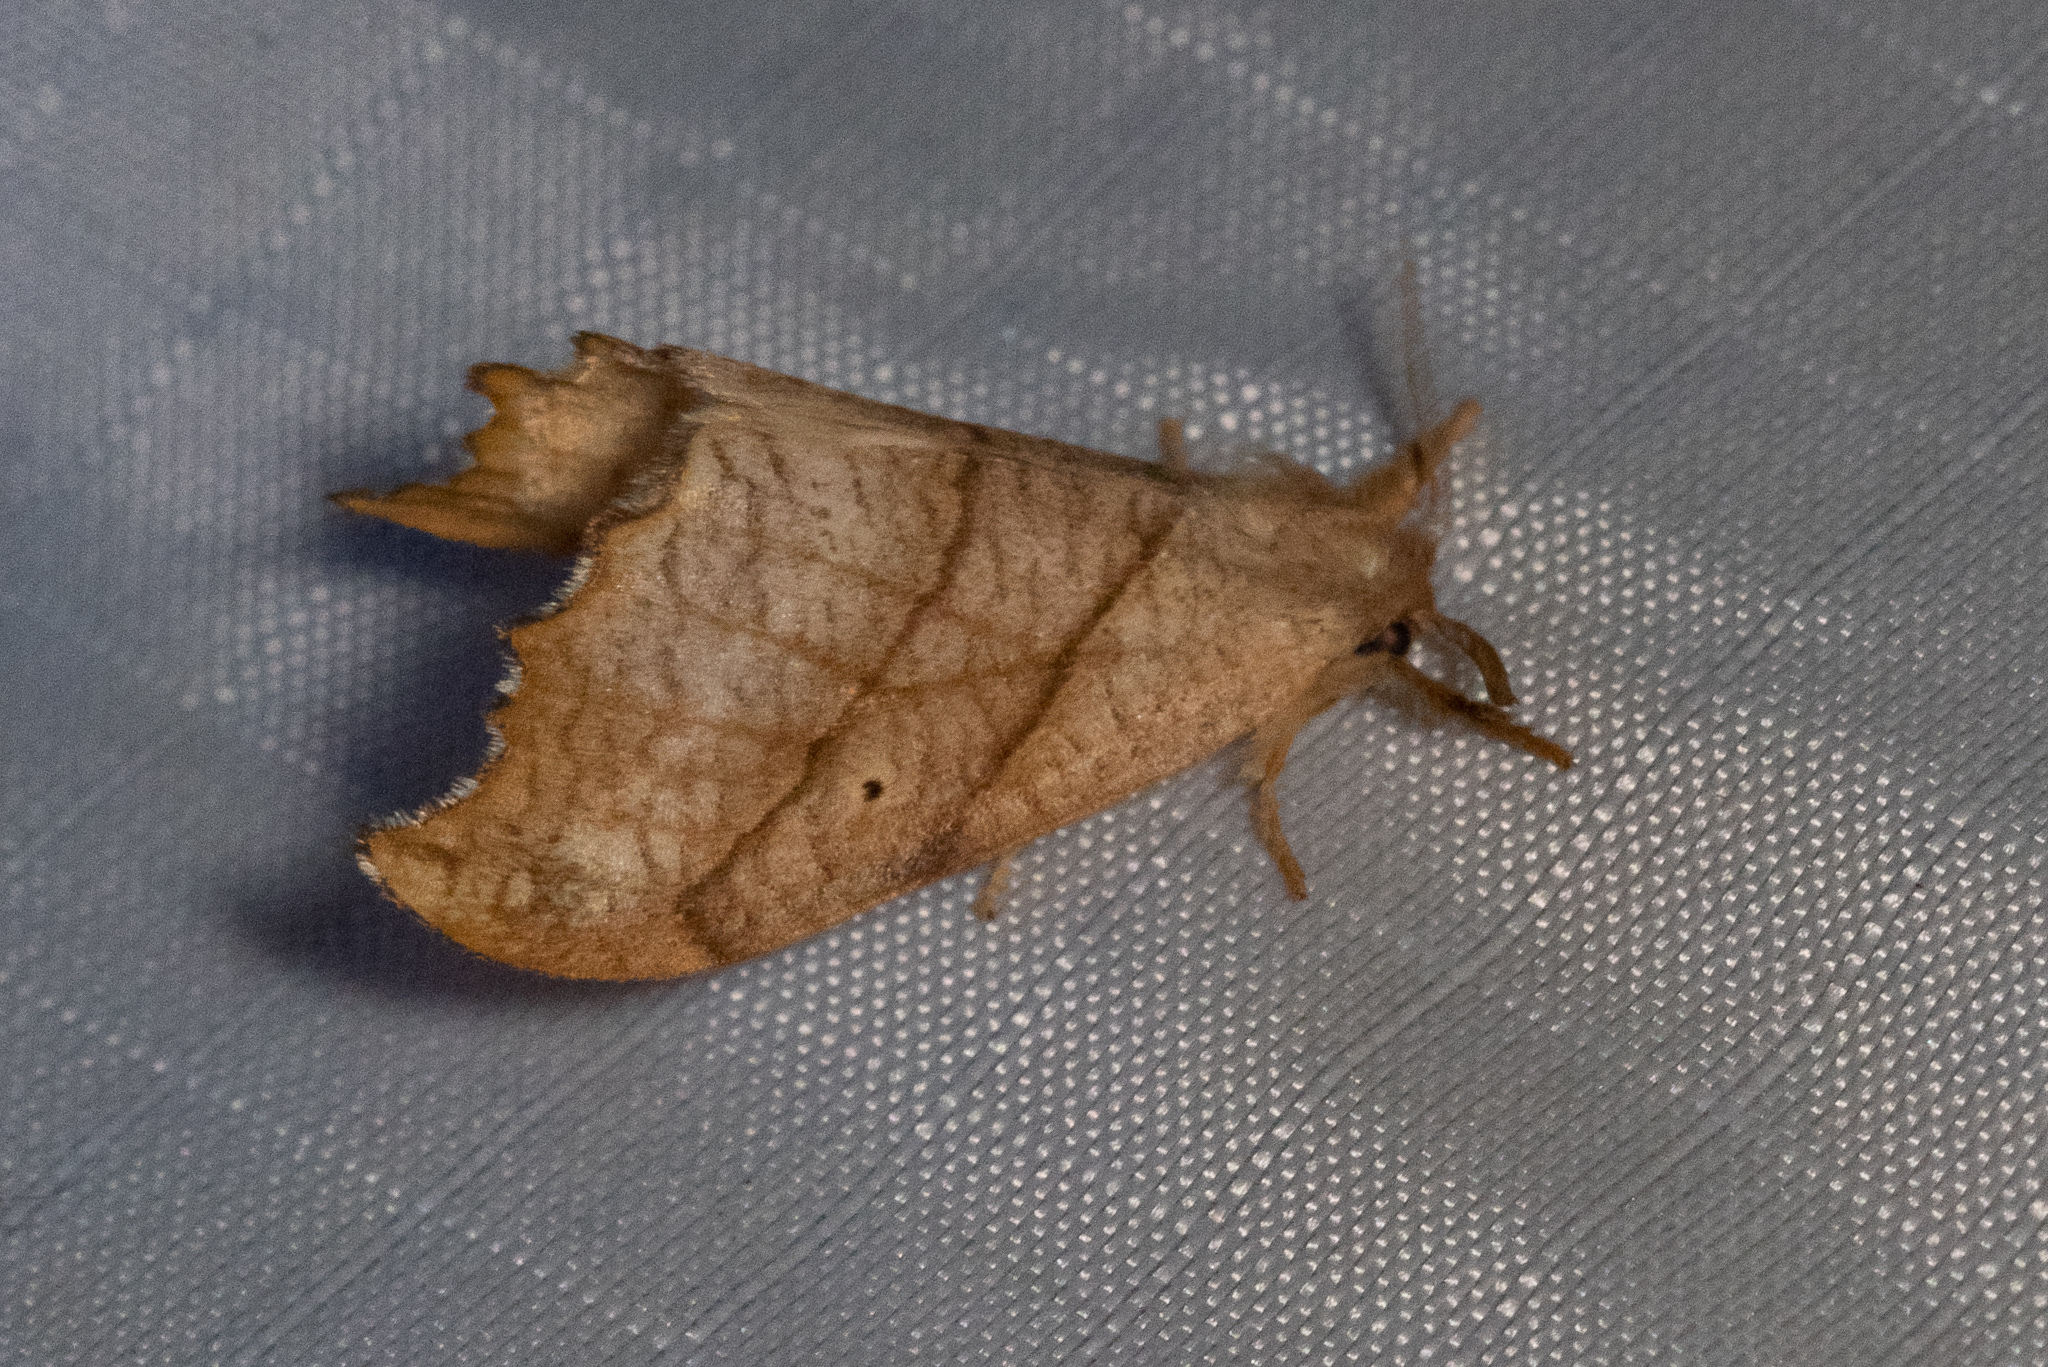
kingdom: Animalia
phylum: Arthropoda
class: Insecta
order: Lepidoptera
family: Drepanidae
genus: Falcaria
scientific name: Falcaria bilineata
